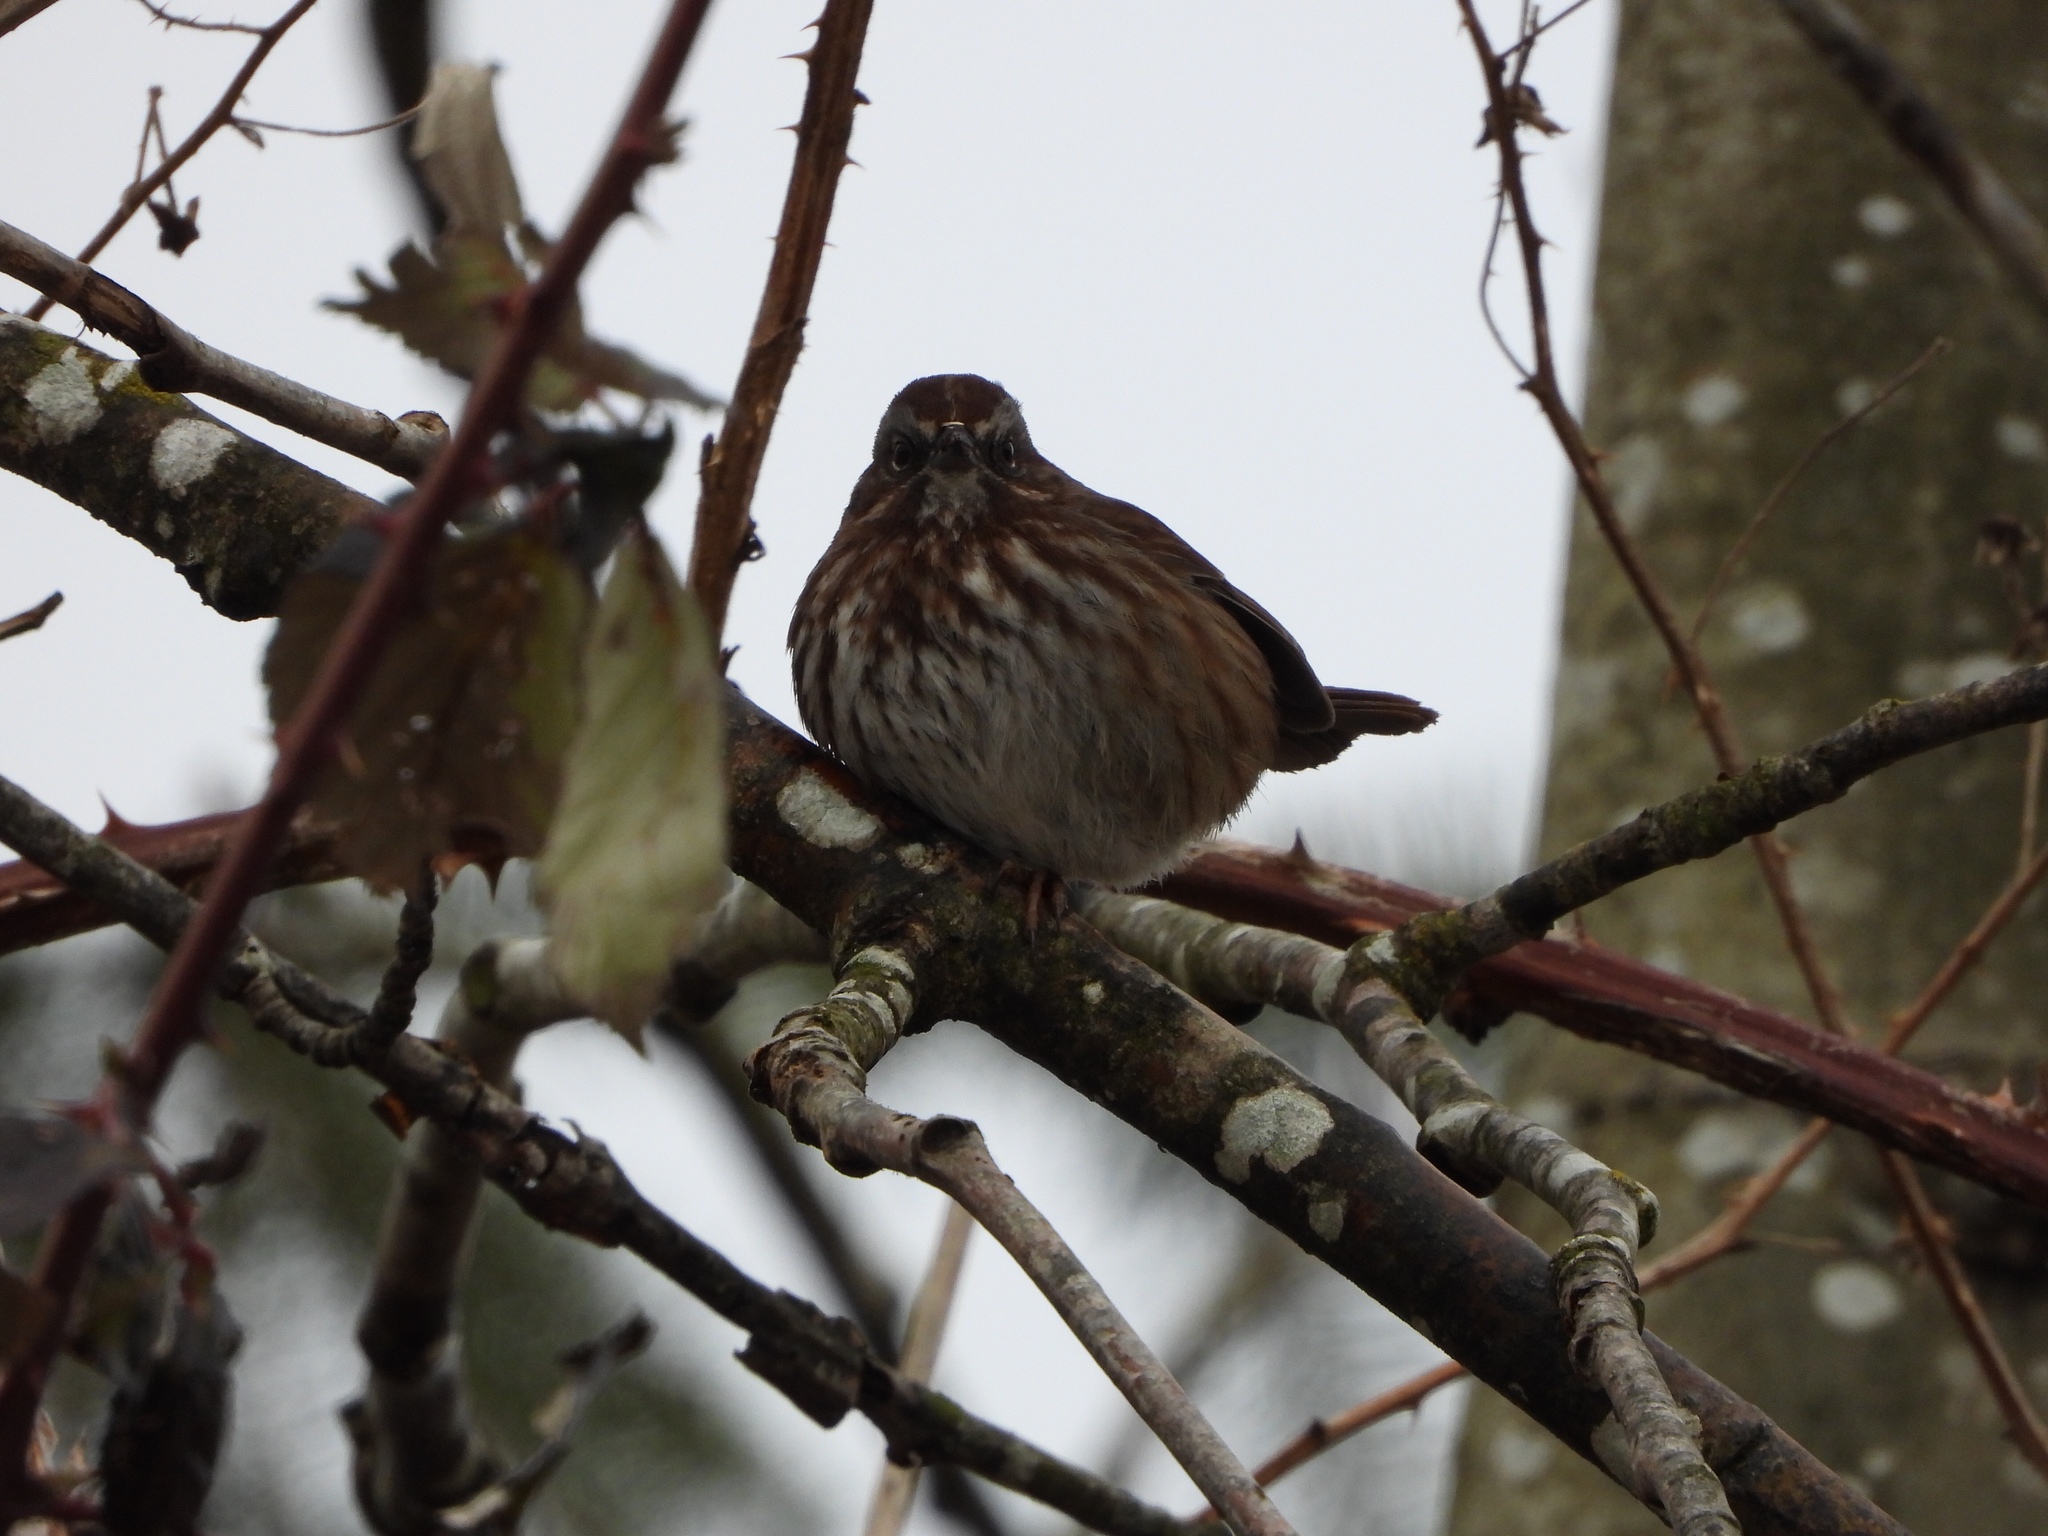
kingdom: Animalia
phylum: Chordata
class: Aves
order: Passeriformes
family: Passerellidae
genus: Melospiza
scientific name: Melospiza melodia
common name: Song sparrow
